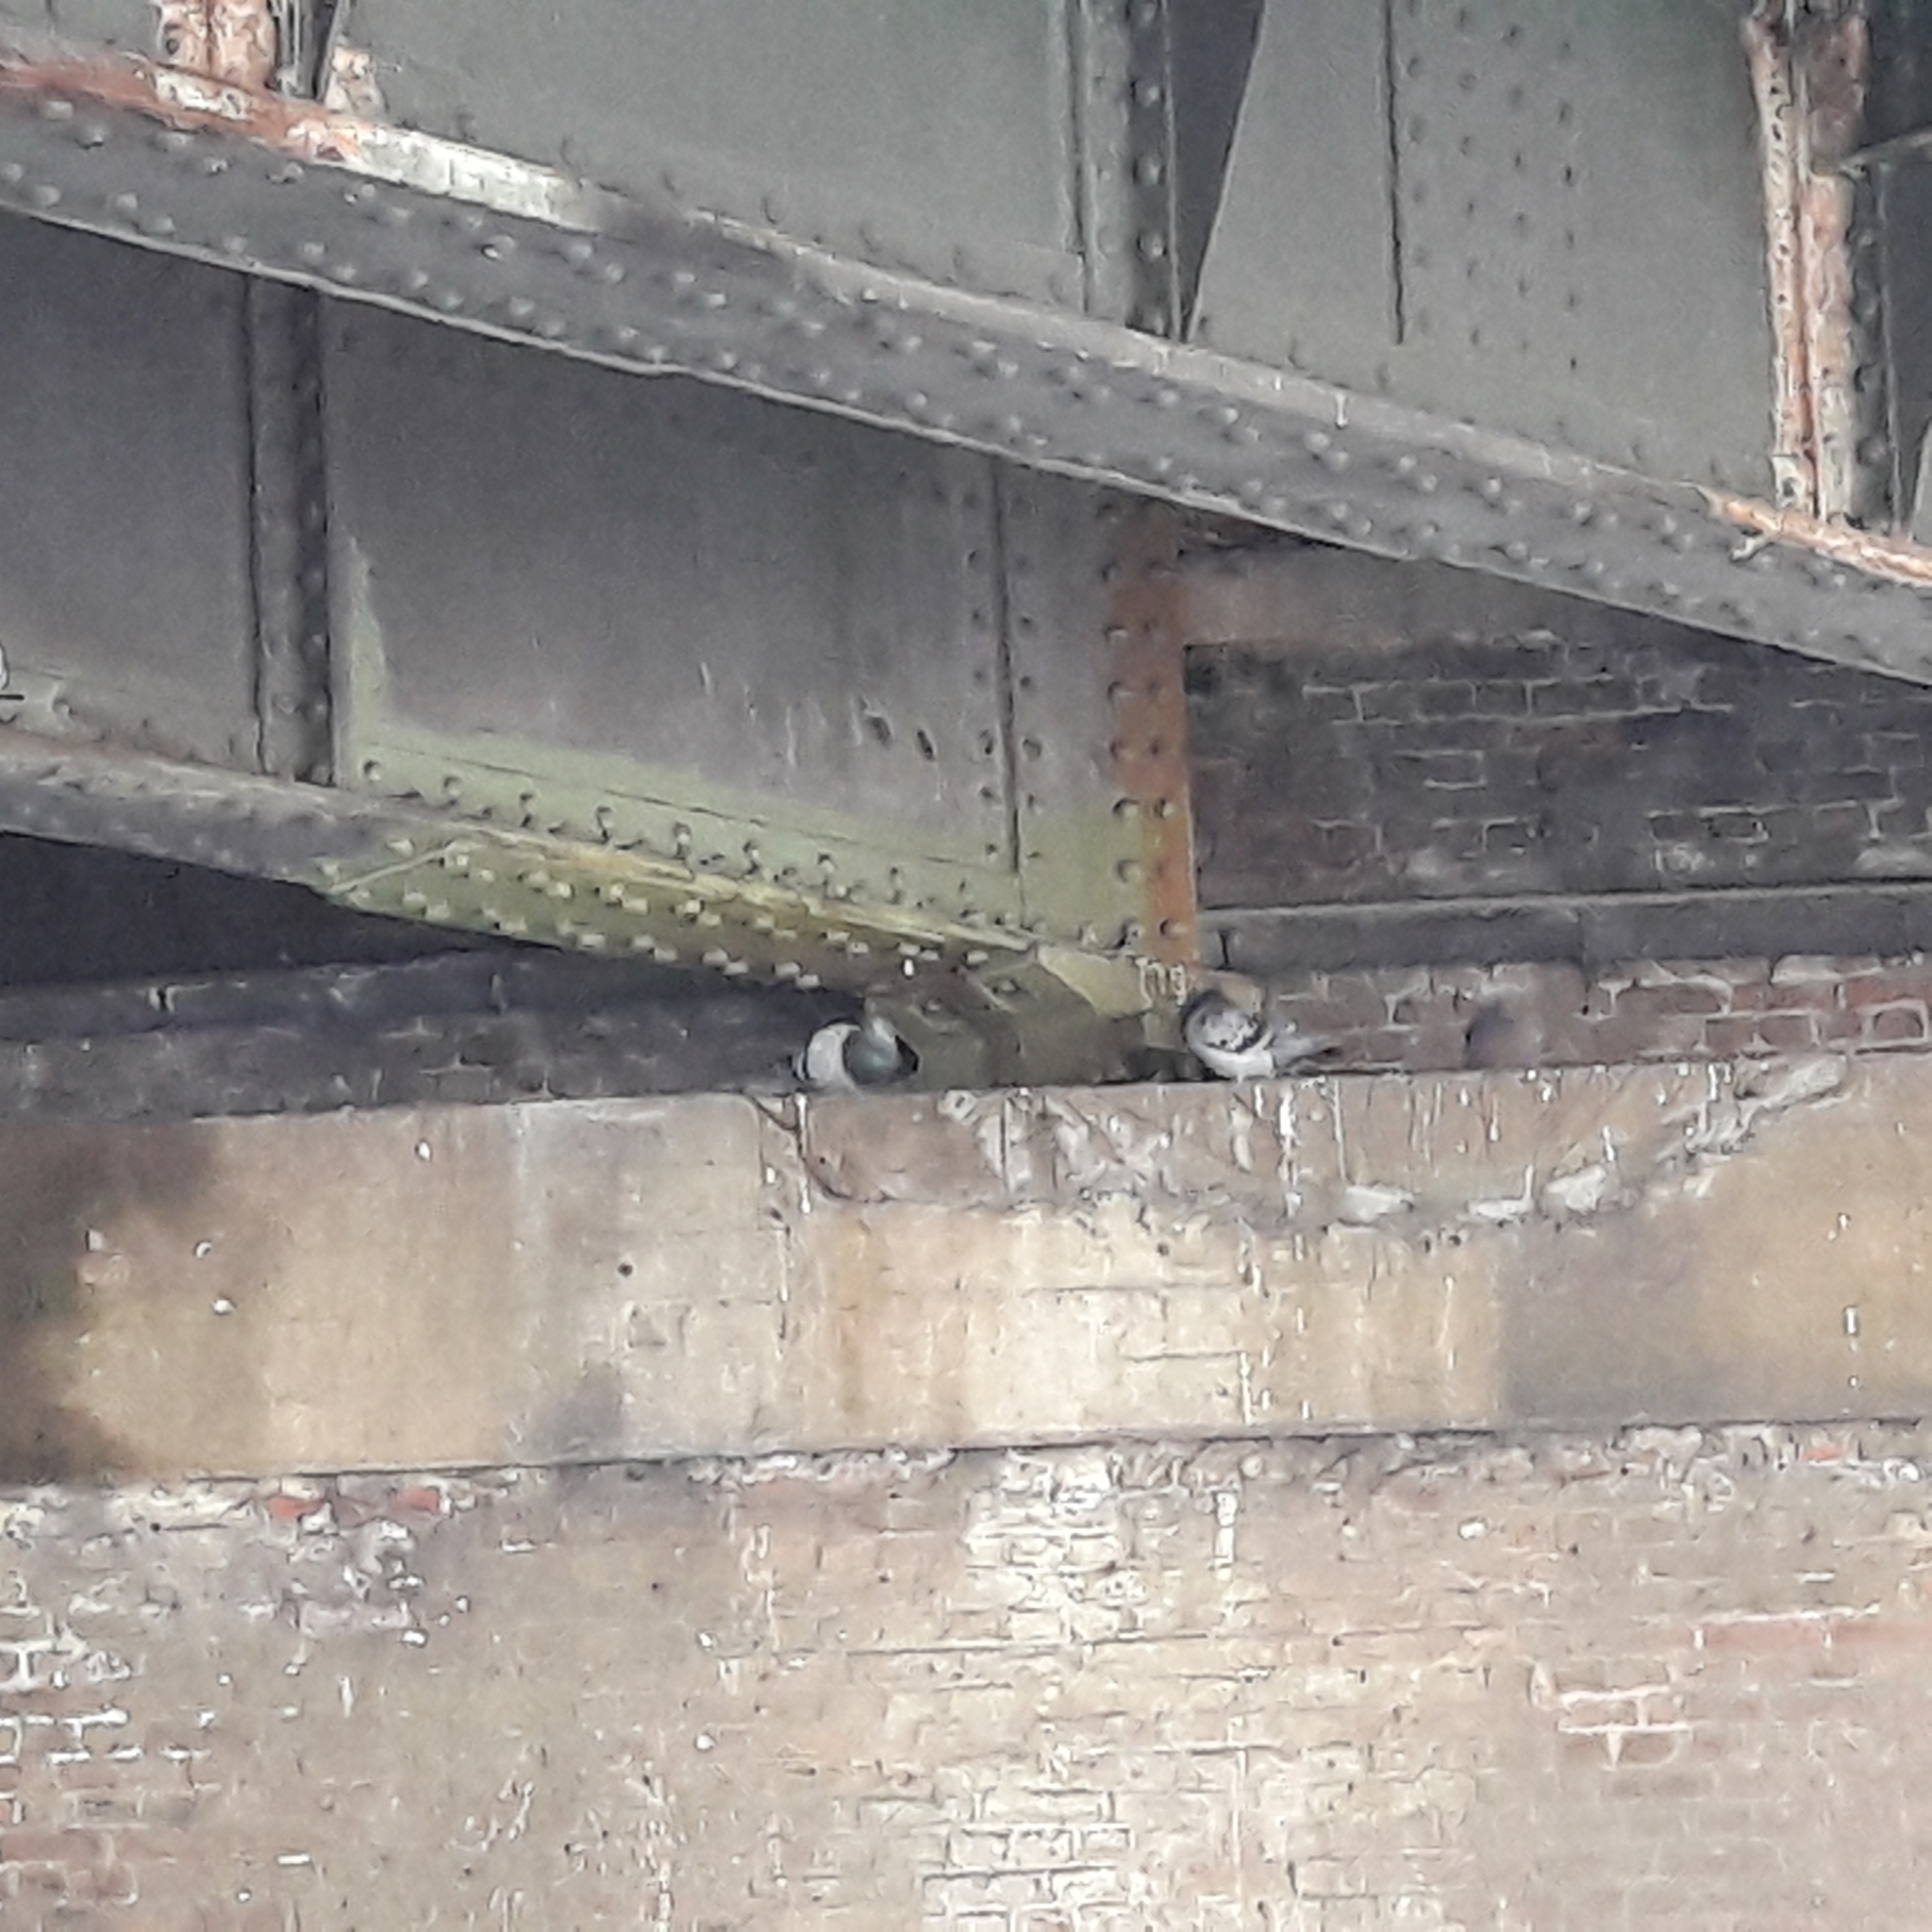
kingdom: Animalia
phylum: Chordata
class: Aves
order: Columbiformes
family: Columbidae
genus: Columba
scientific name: Columba livia
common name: Rock pigeon
